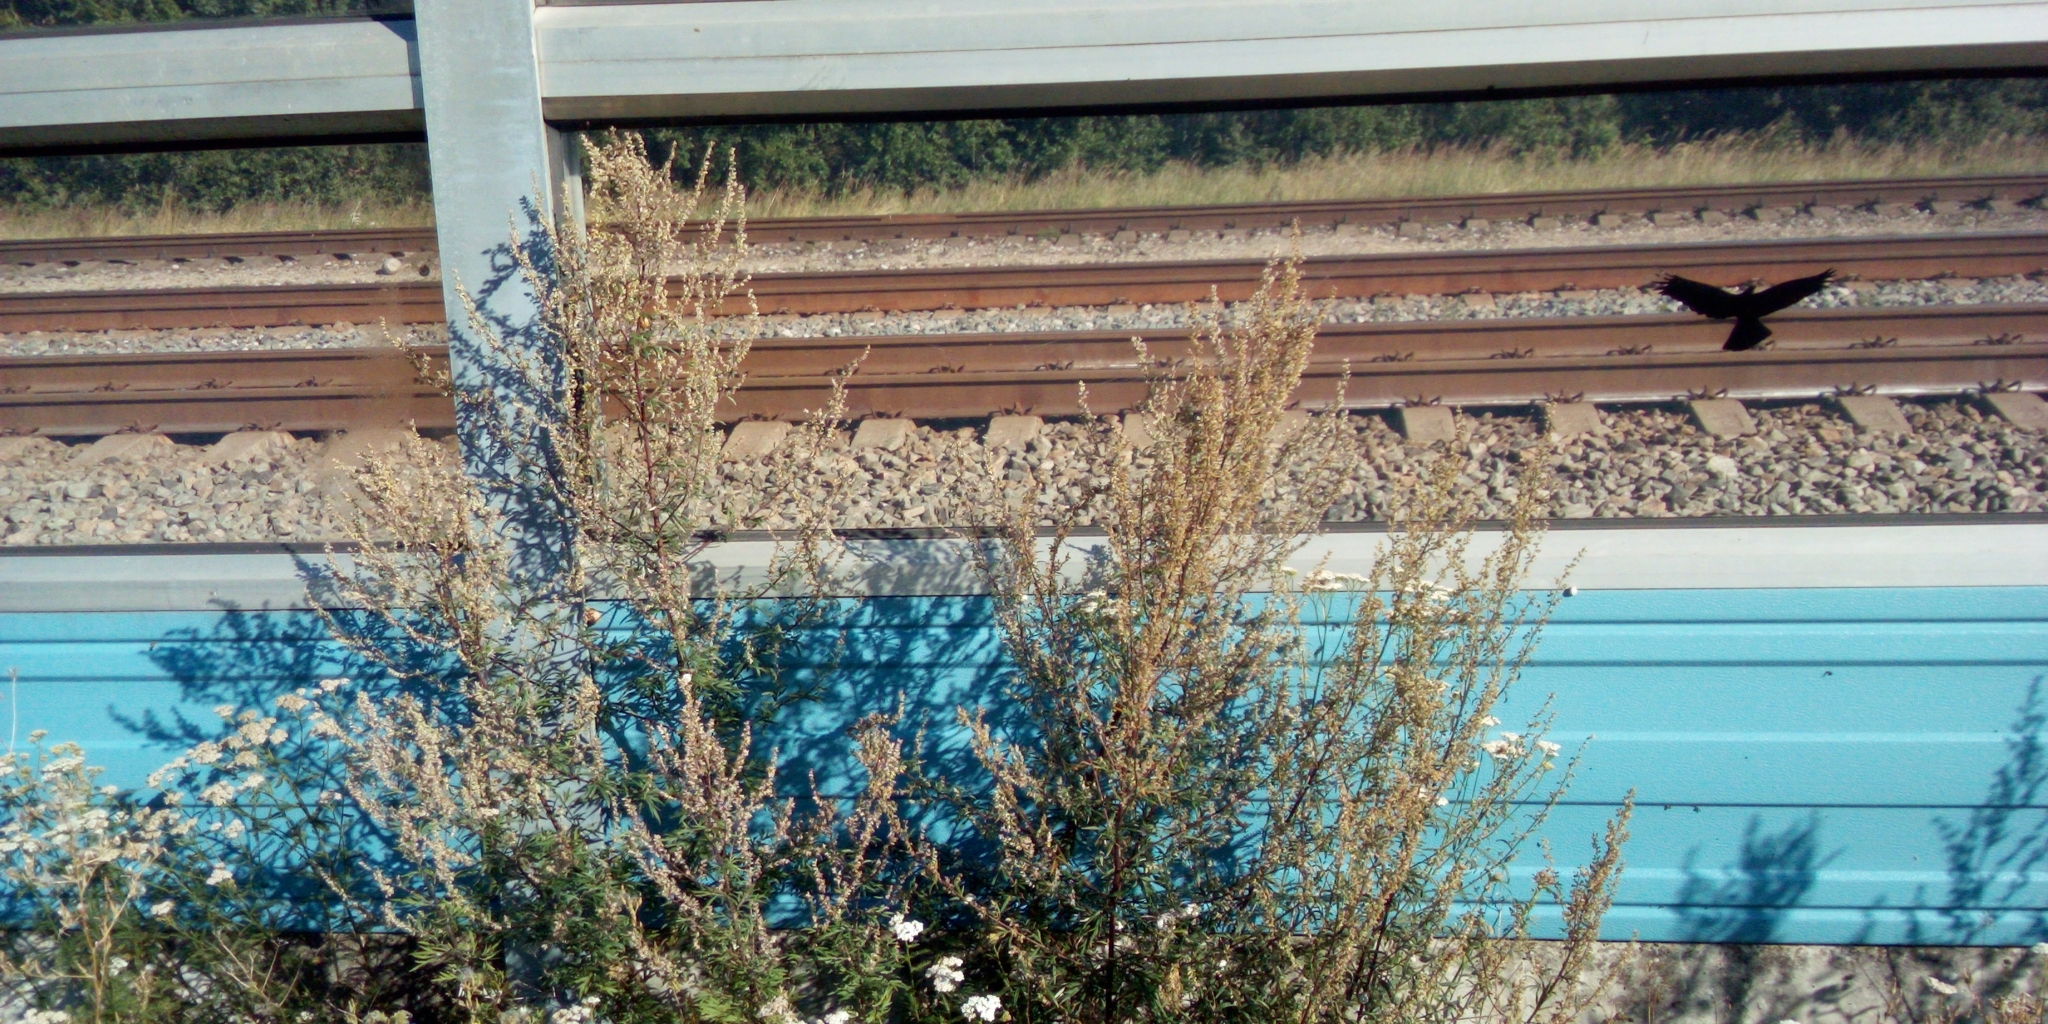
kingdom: Plantae
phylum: Tracheophyta
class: Magnoliopsida
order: Asterales
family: Asteraceae
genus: Artemisia
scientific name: Artemisia vulgaris
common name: Mugwort
